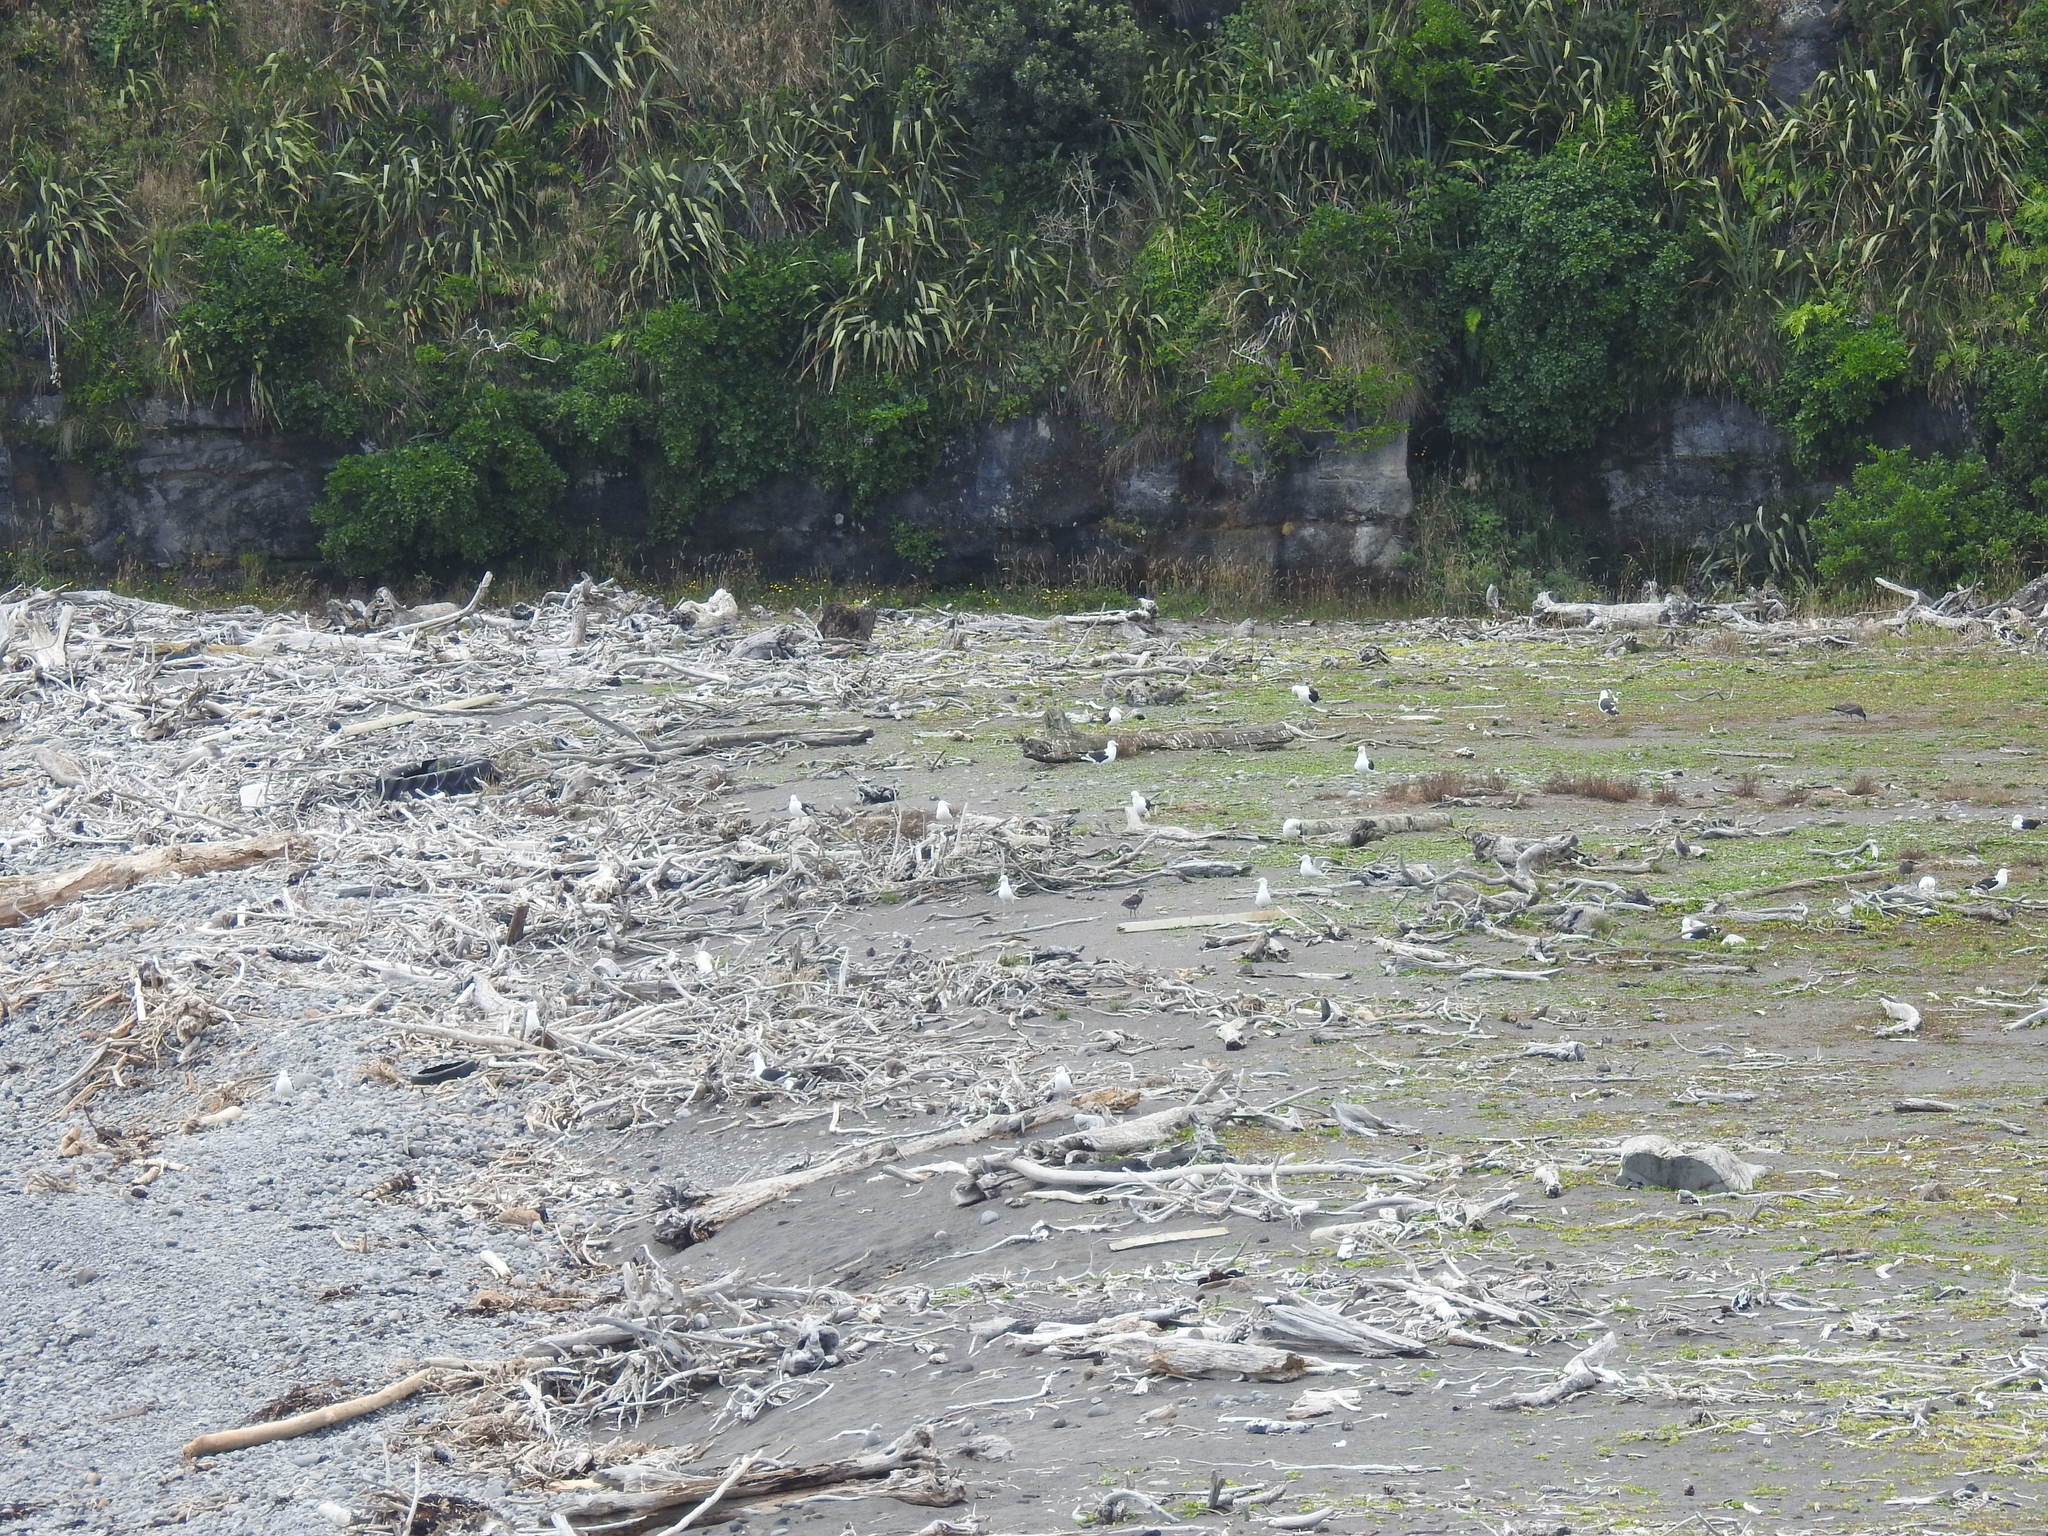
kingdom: Animalia
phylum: Chordata
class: Aves
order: Charadriiformes
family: Laridae
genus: Larus
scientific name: Larus dominicanus
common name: Kelp gull
